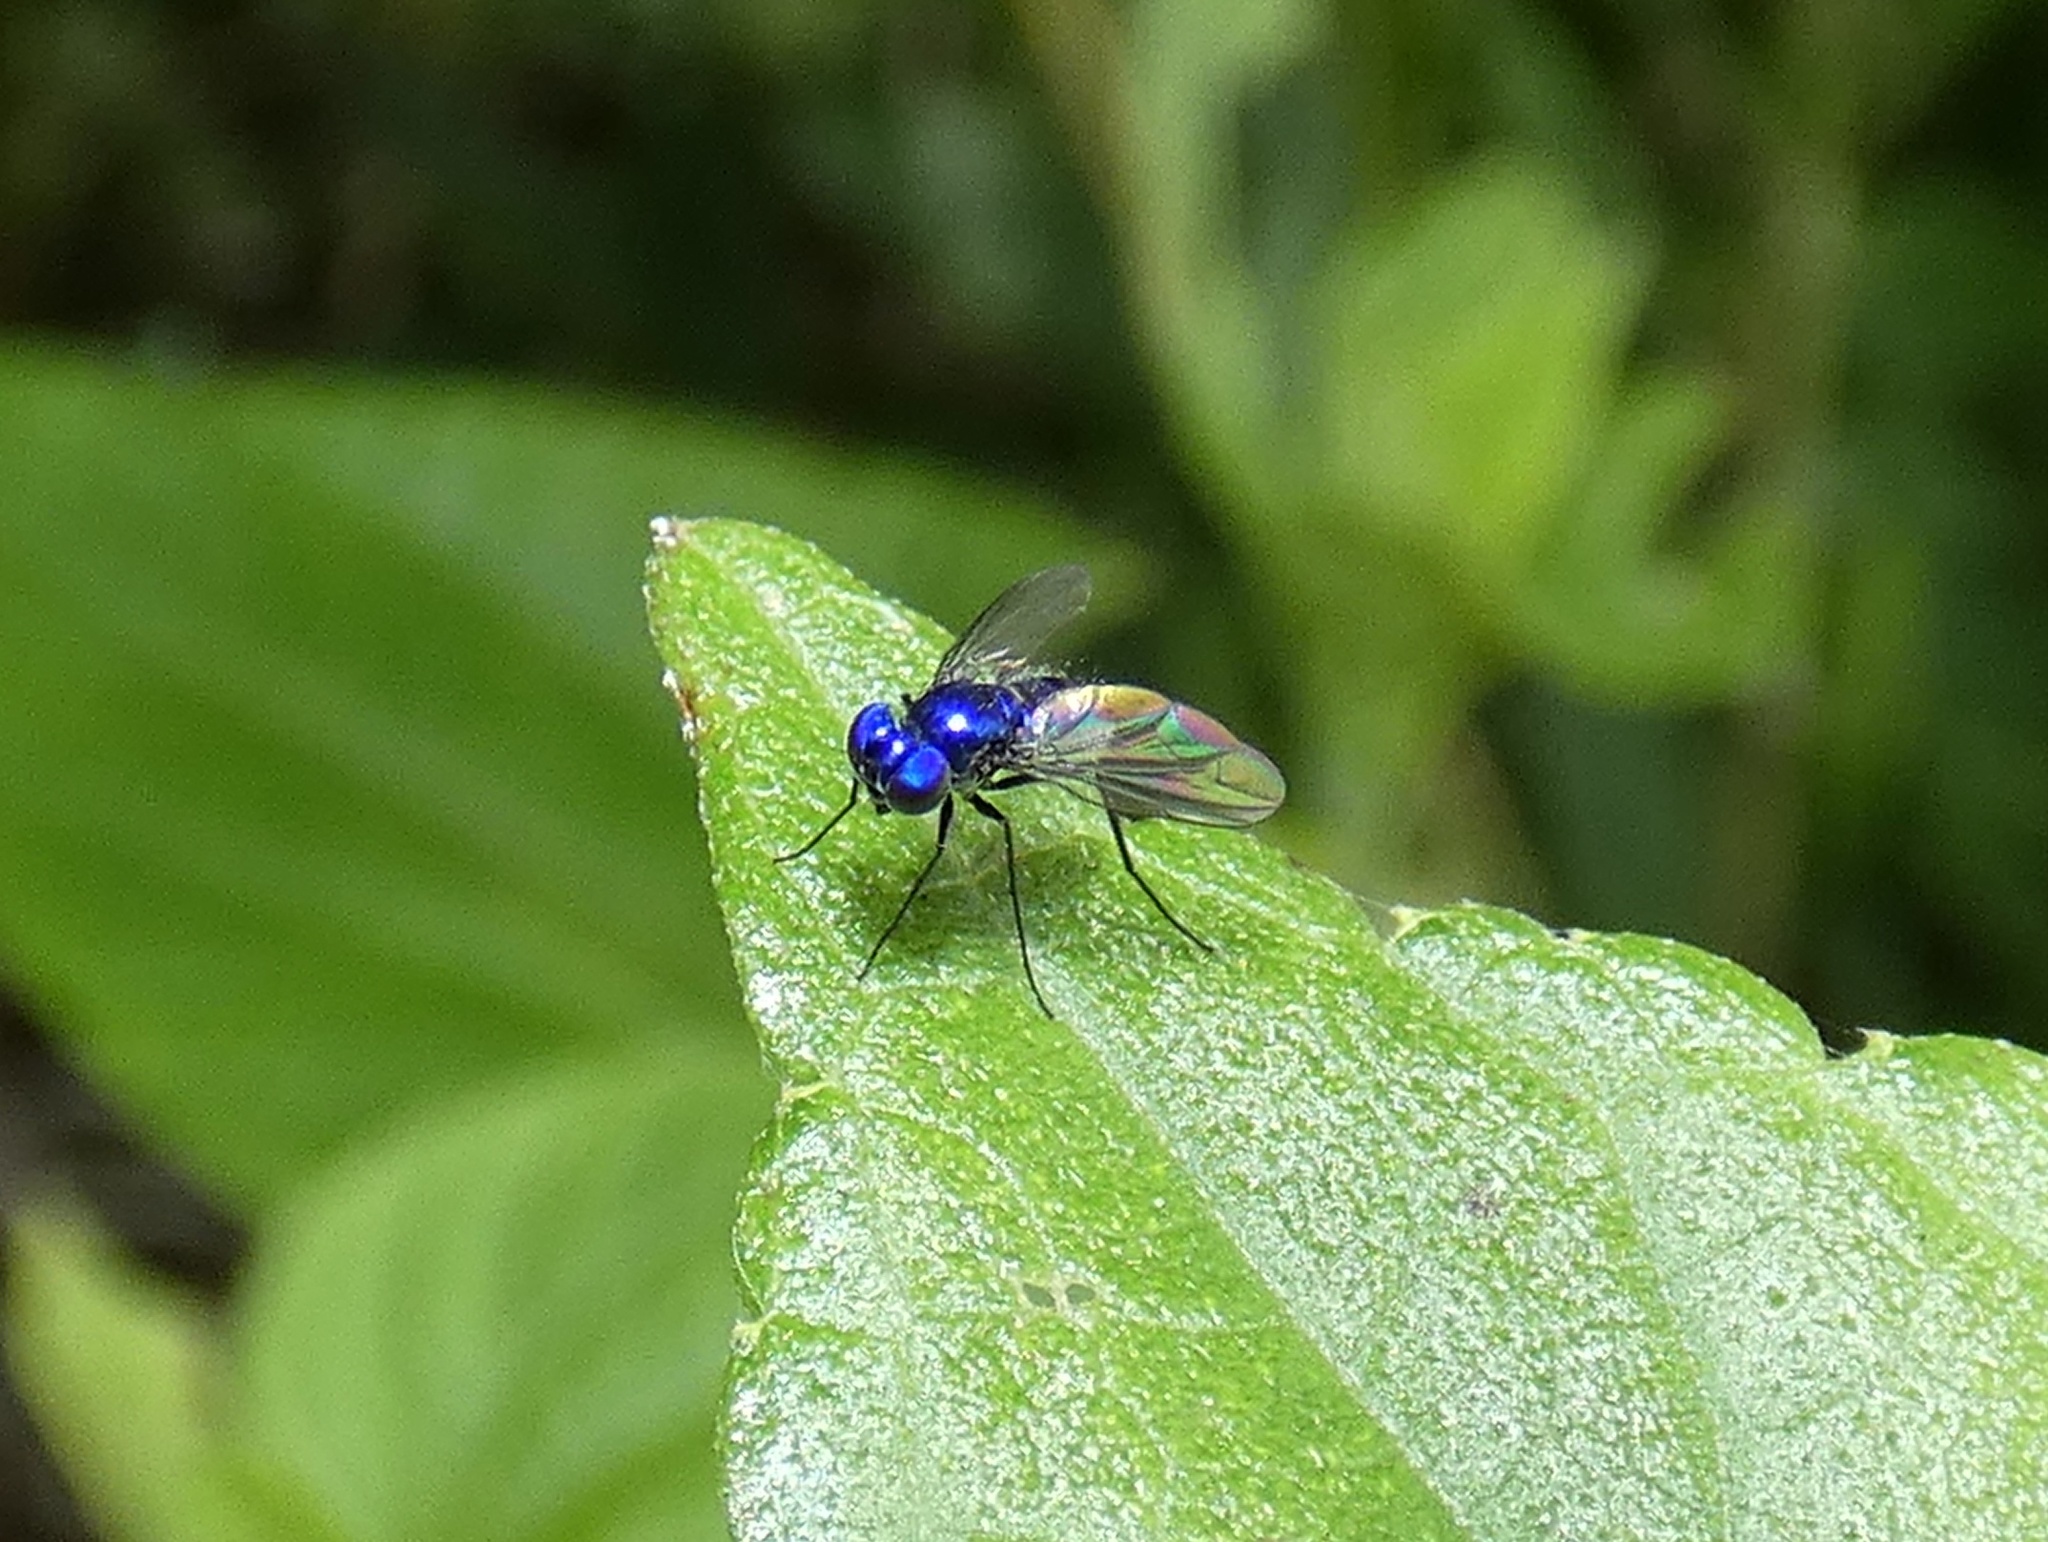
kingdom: Animalia
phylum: Arthropoda
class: Insecta
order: Diptera
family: Dolichopodidae
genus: Condylostylus
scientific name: Condylostylus mundus
